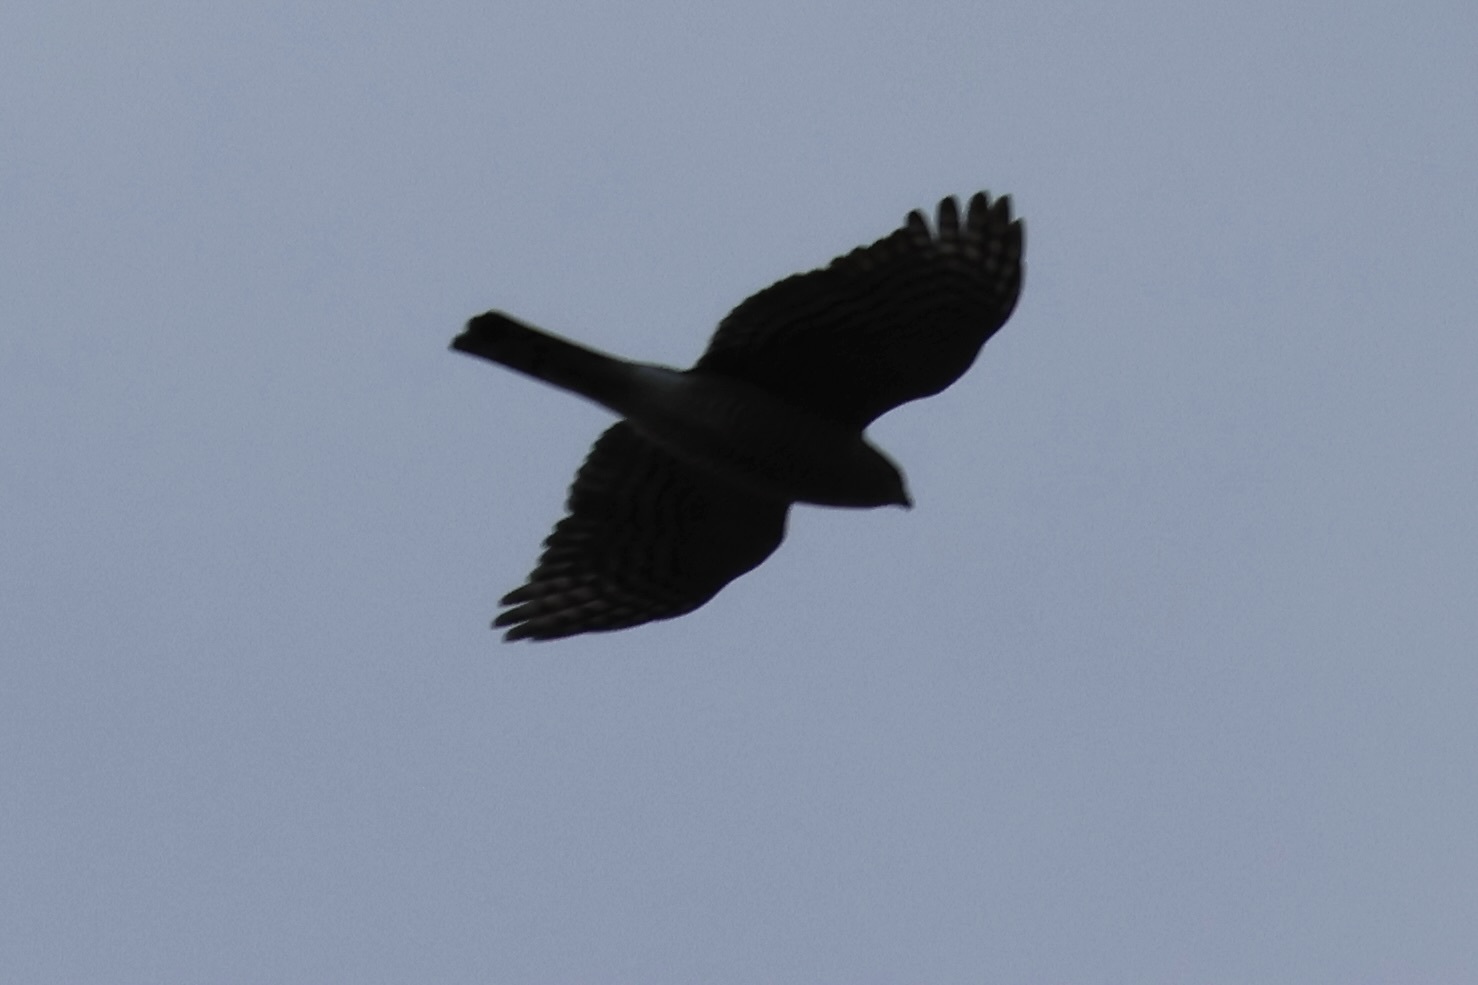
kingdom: Animalia
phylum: Chordata
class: Aves
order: Accipitriformes
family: Accipitridae
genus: Accipiter
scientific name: Accipiter striatus
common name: Sharp-shinned hawk
